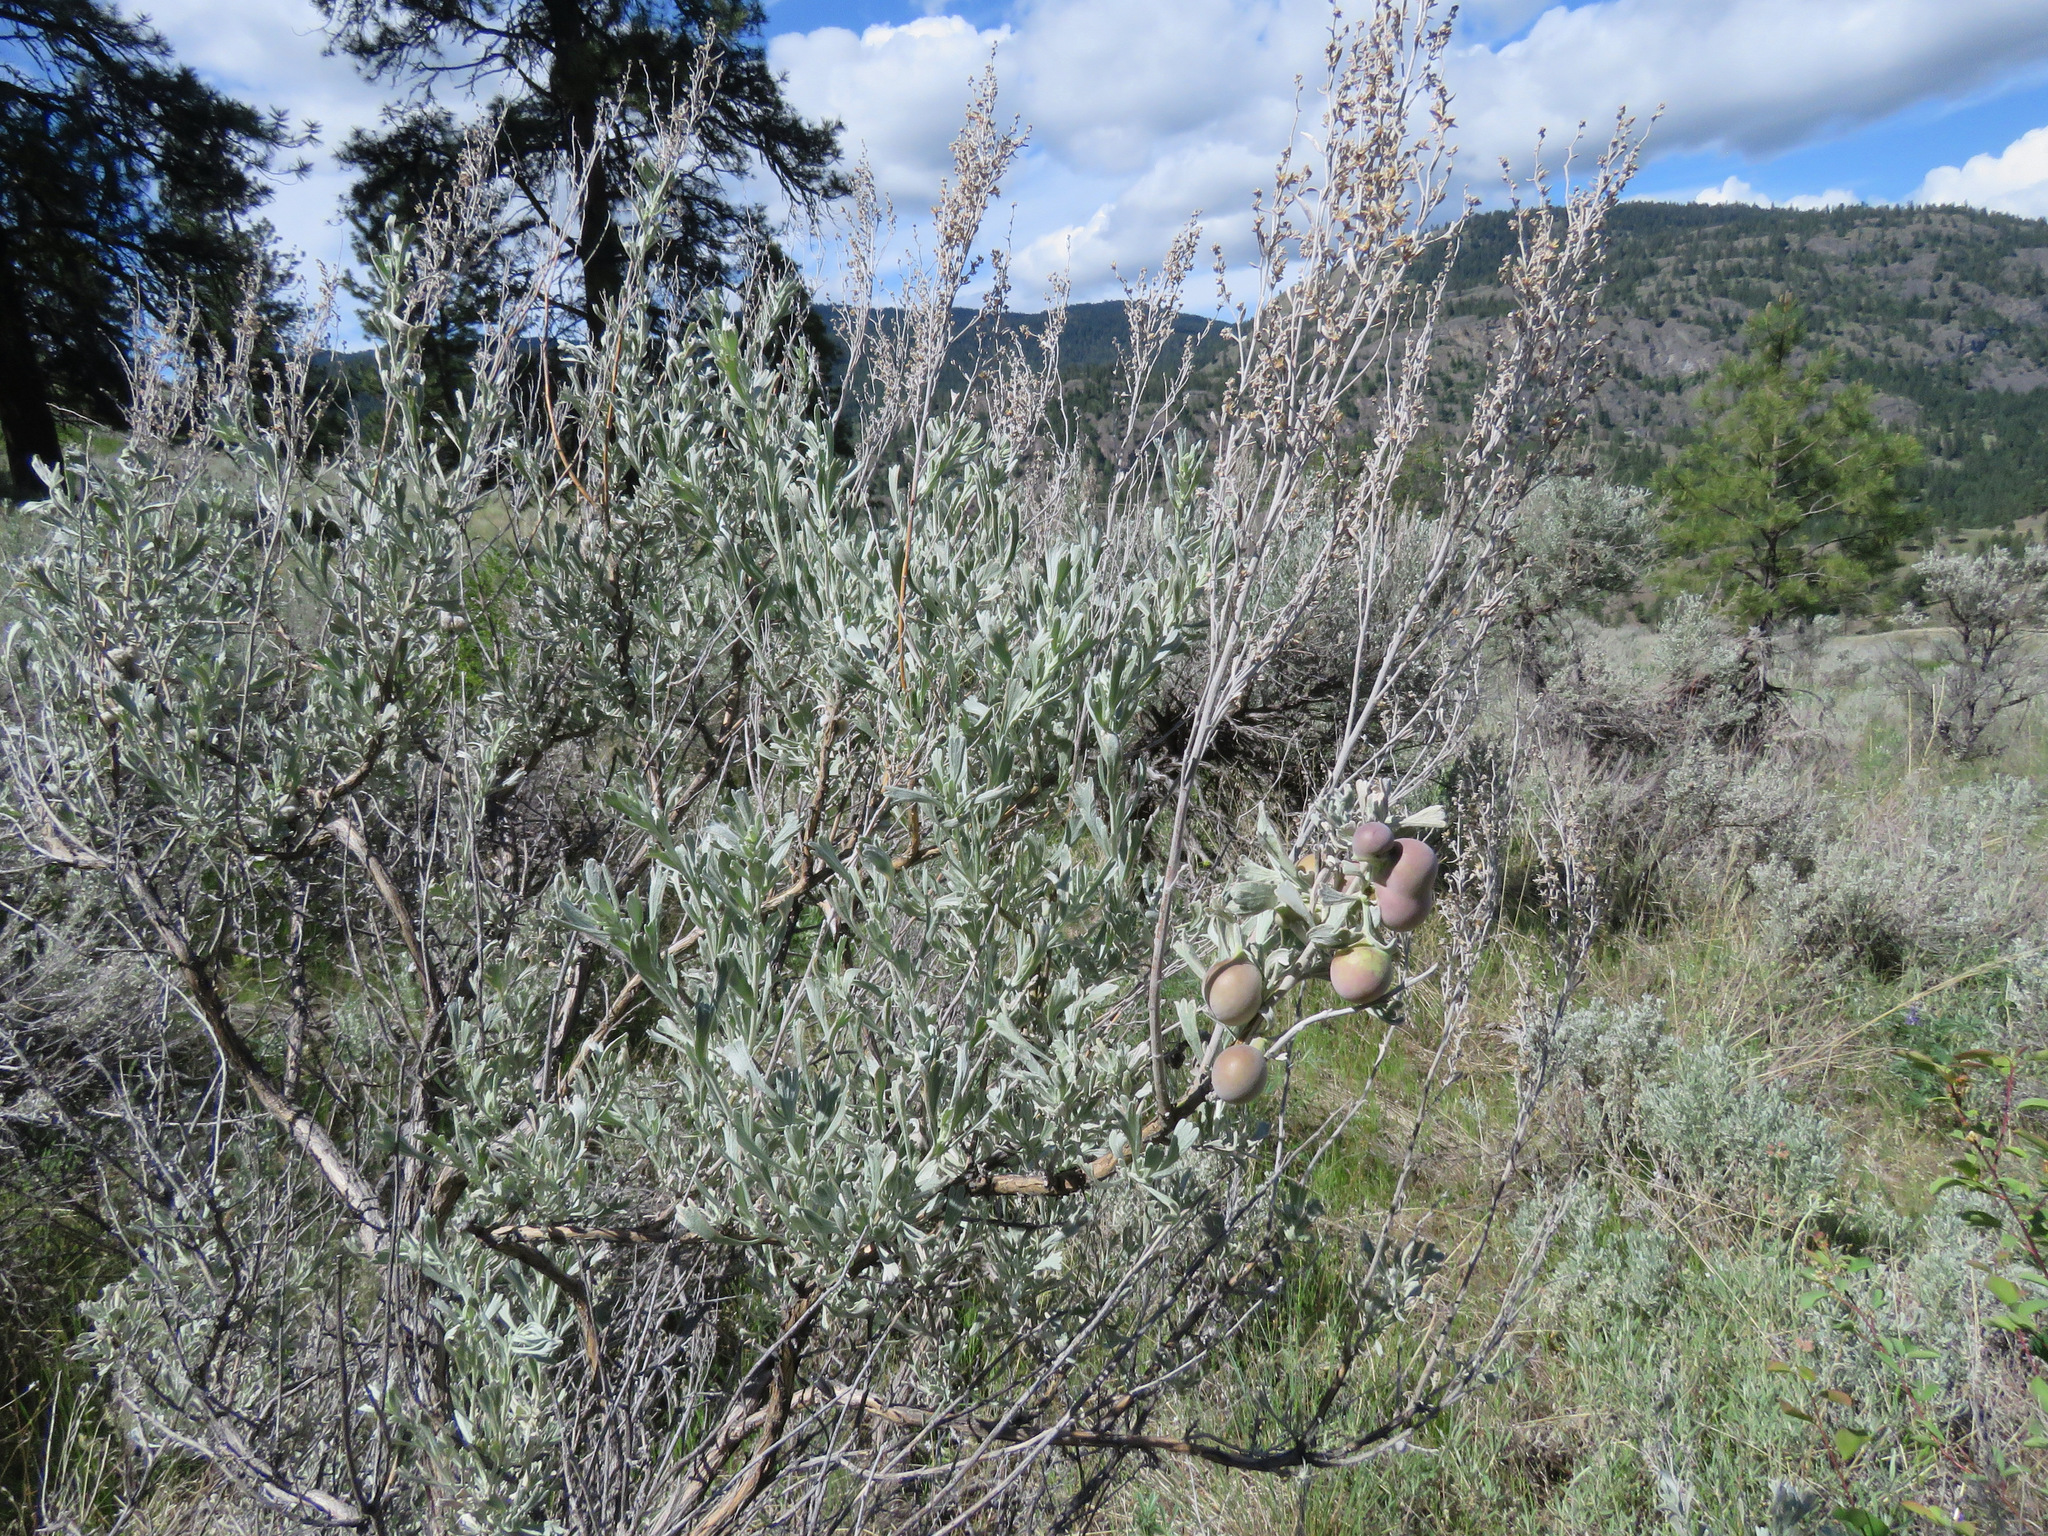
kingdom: Plantae
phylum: Tracheophyta
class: Magnoliopsida
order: Asterales
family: Asteraceae
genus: Artemisia
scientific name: Artemisia tridentata
